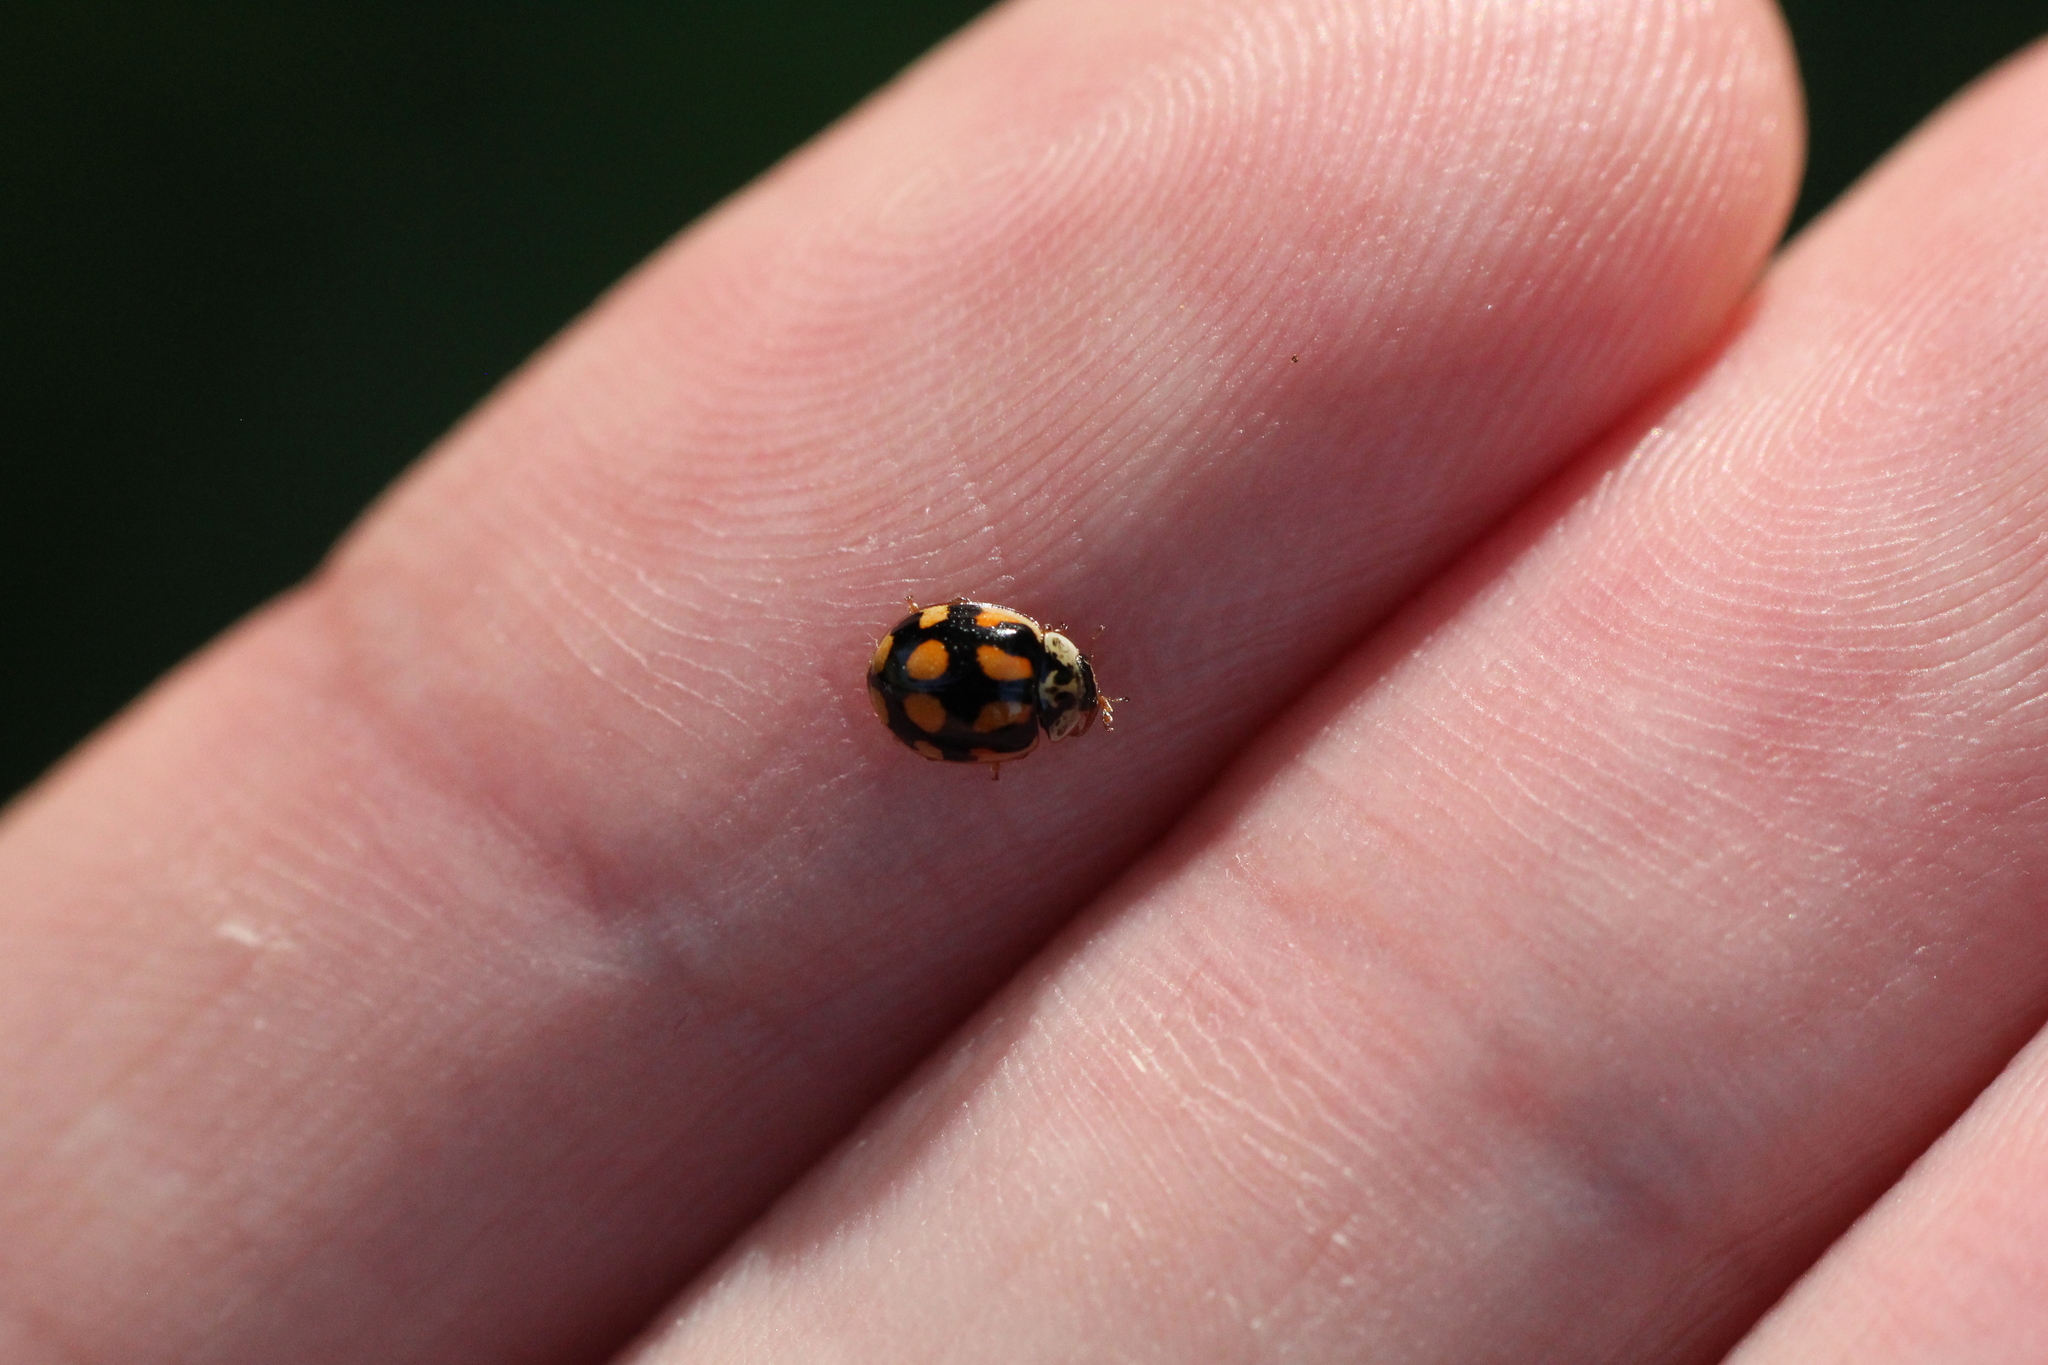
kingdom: Animalia
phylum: Arthropoda
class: Insecta
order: Coleoptera
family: Coccinellidae
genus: Adalia
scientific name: Adalia decempunctata
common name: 10-spot ladybird
